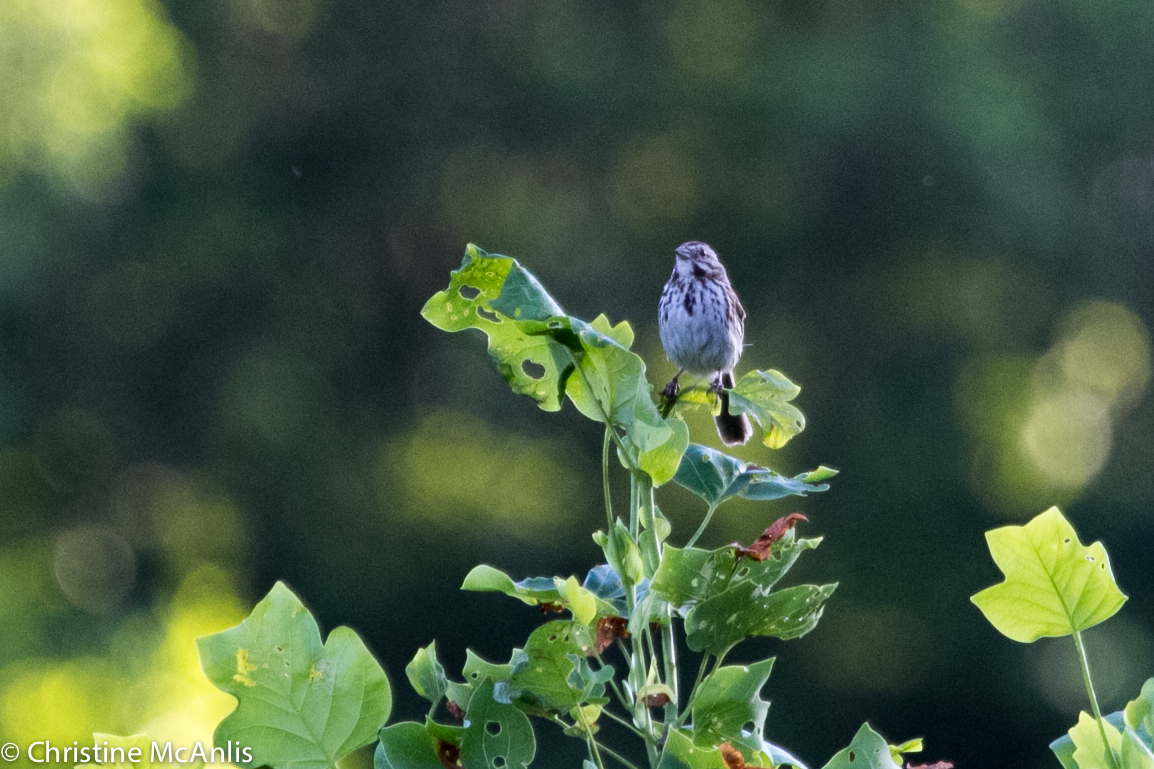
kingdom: Animalia
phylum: Chordata
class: Aves
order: Passeriformes
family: Passerellidae
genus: Melospiza
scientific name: Melospiza melodia
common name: Song sparrow
